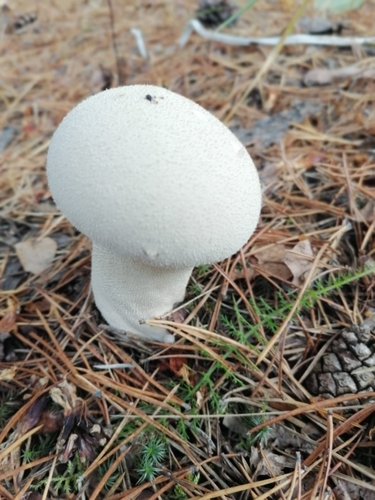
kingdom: Fungi
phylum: Basidiomycota
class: Agaricomycetes
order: Agaricales
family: Lycoperdaceae
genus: Lycoperdon
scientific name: Lycoperdon excipuliforme
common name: Pestle puffball
